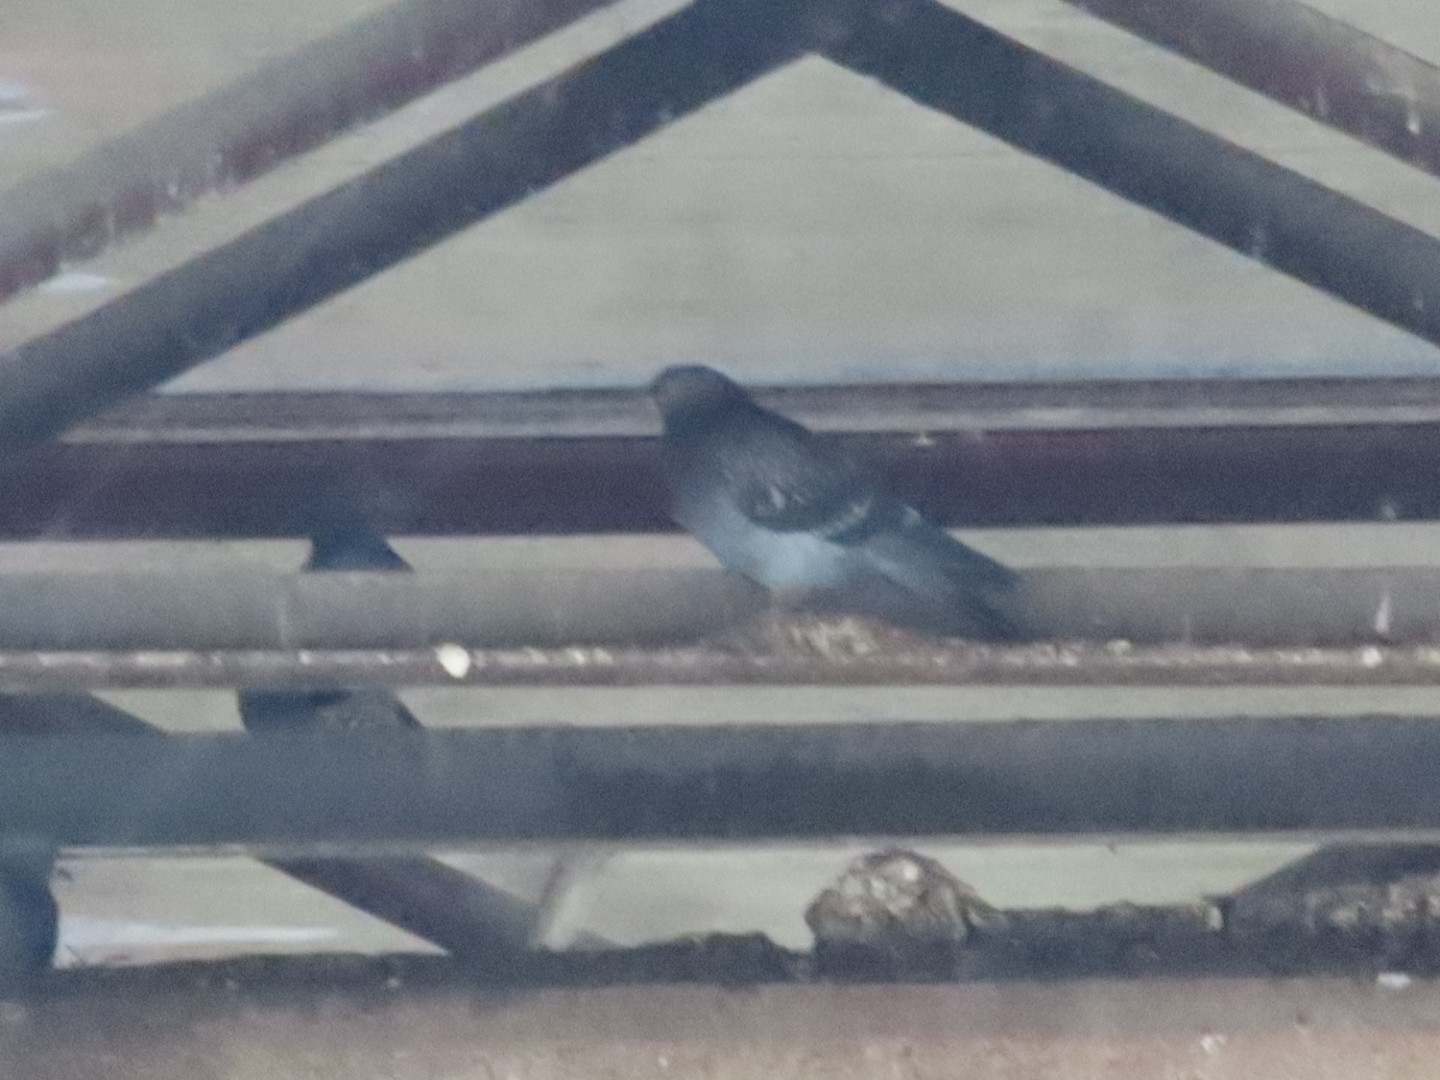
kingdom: Animalia
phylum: Chordata
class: Aves
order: Columbiformes
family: Columbidae
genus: Columba
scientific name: Columba livia
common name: Rock pigeon
